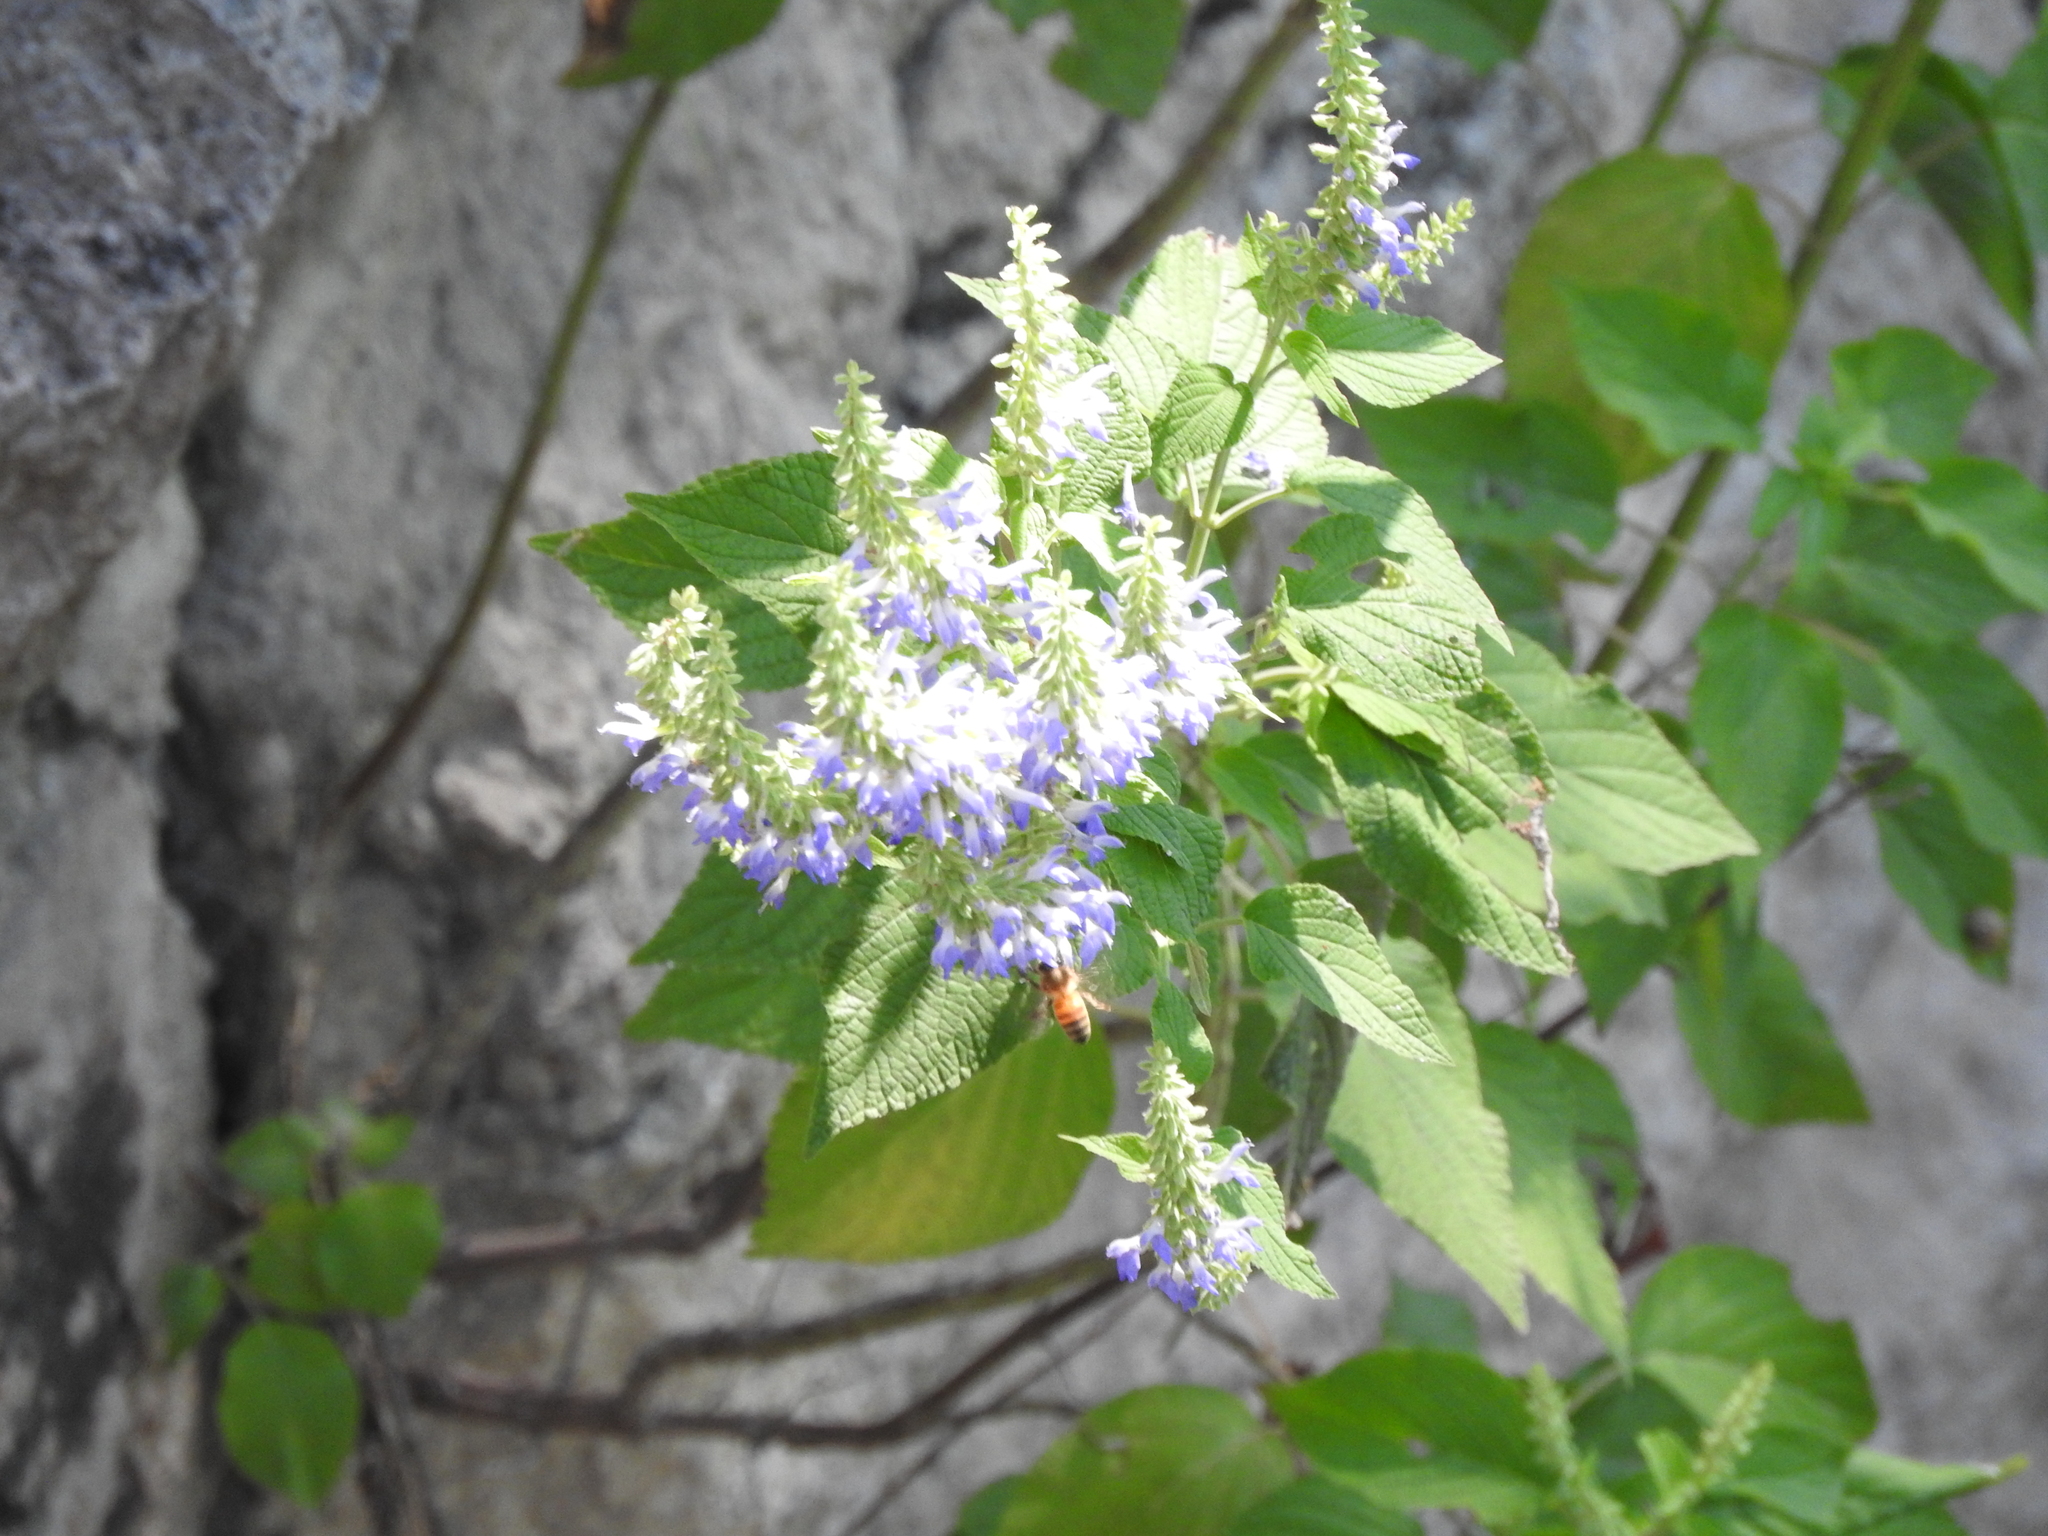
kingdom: Plantae
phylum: Tracheophyta
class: Magnoliopsida
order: Lamiales
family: Lamiaceae
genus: Salvia
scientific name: Salvia polystachia
